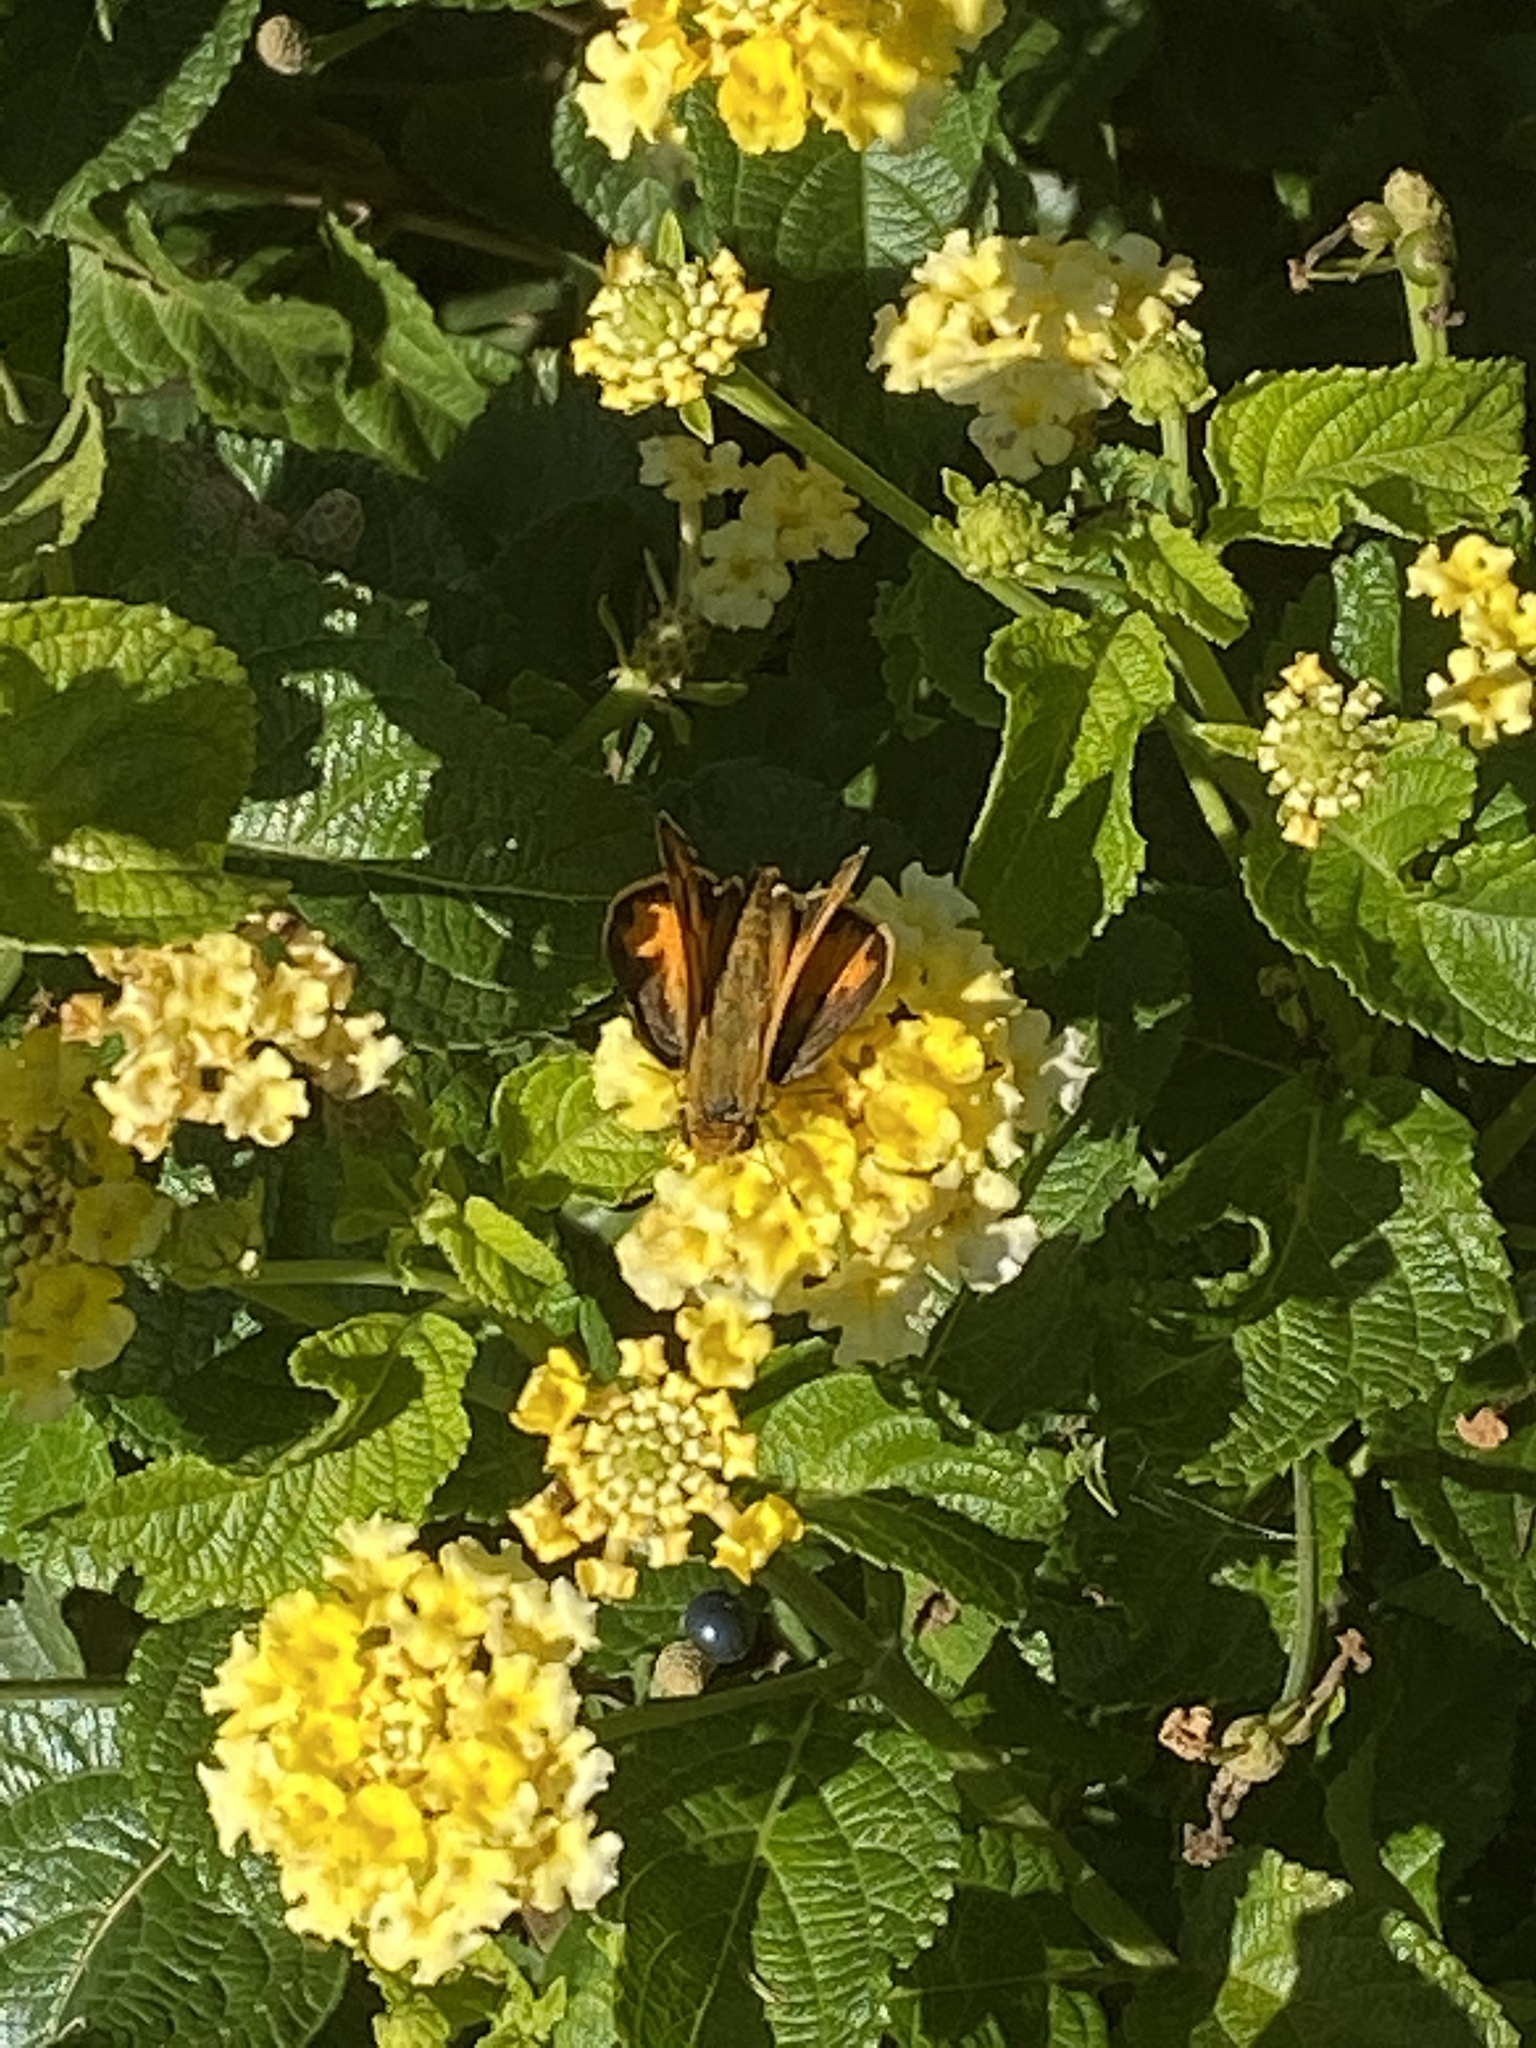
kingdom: Animalia
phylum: Arthropoda
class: Insecta
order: Lepidoptera
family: Hesperiidae
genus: Hylephila
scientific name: Hylephila phyleus
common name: Fiery skipper
